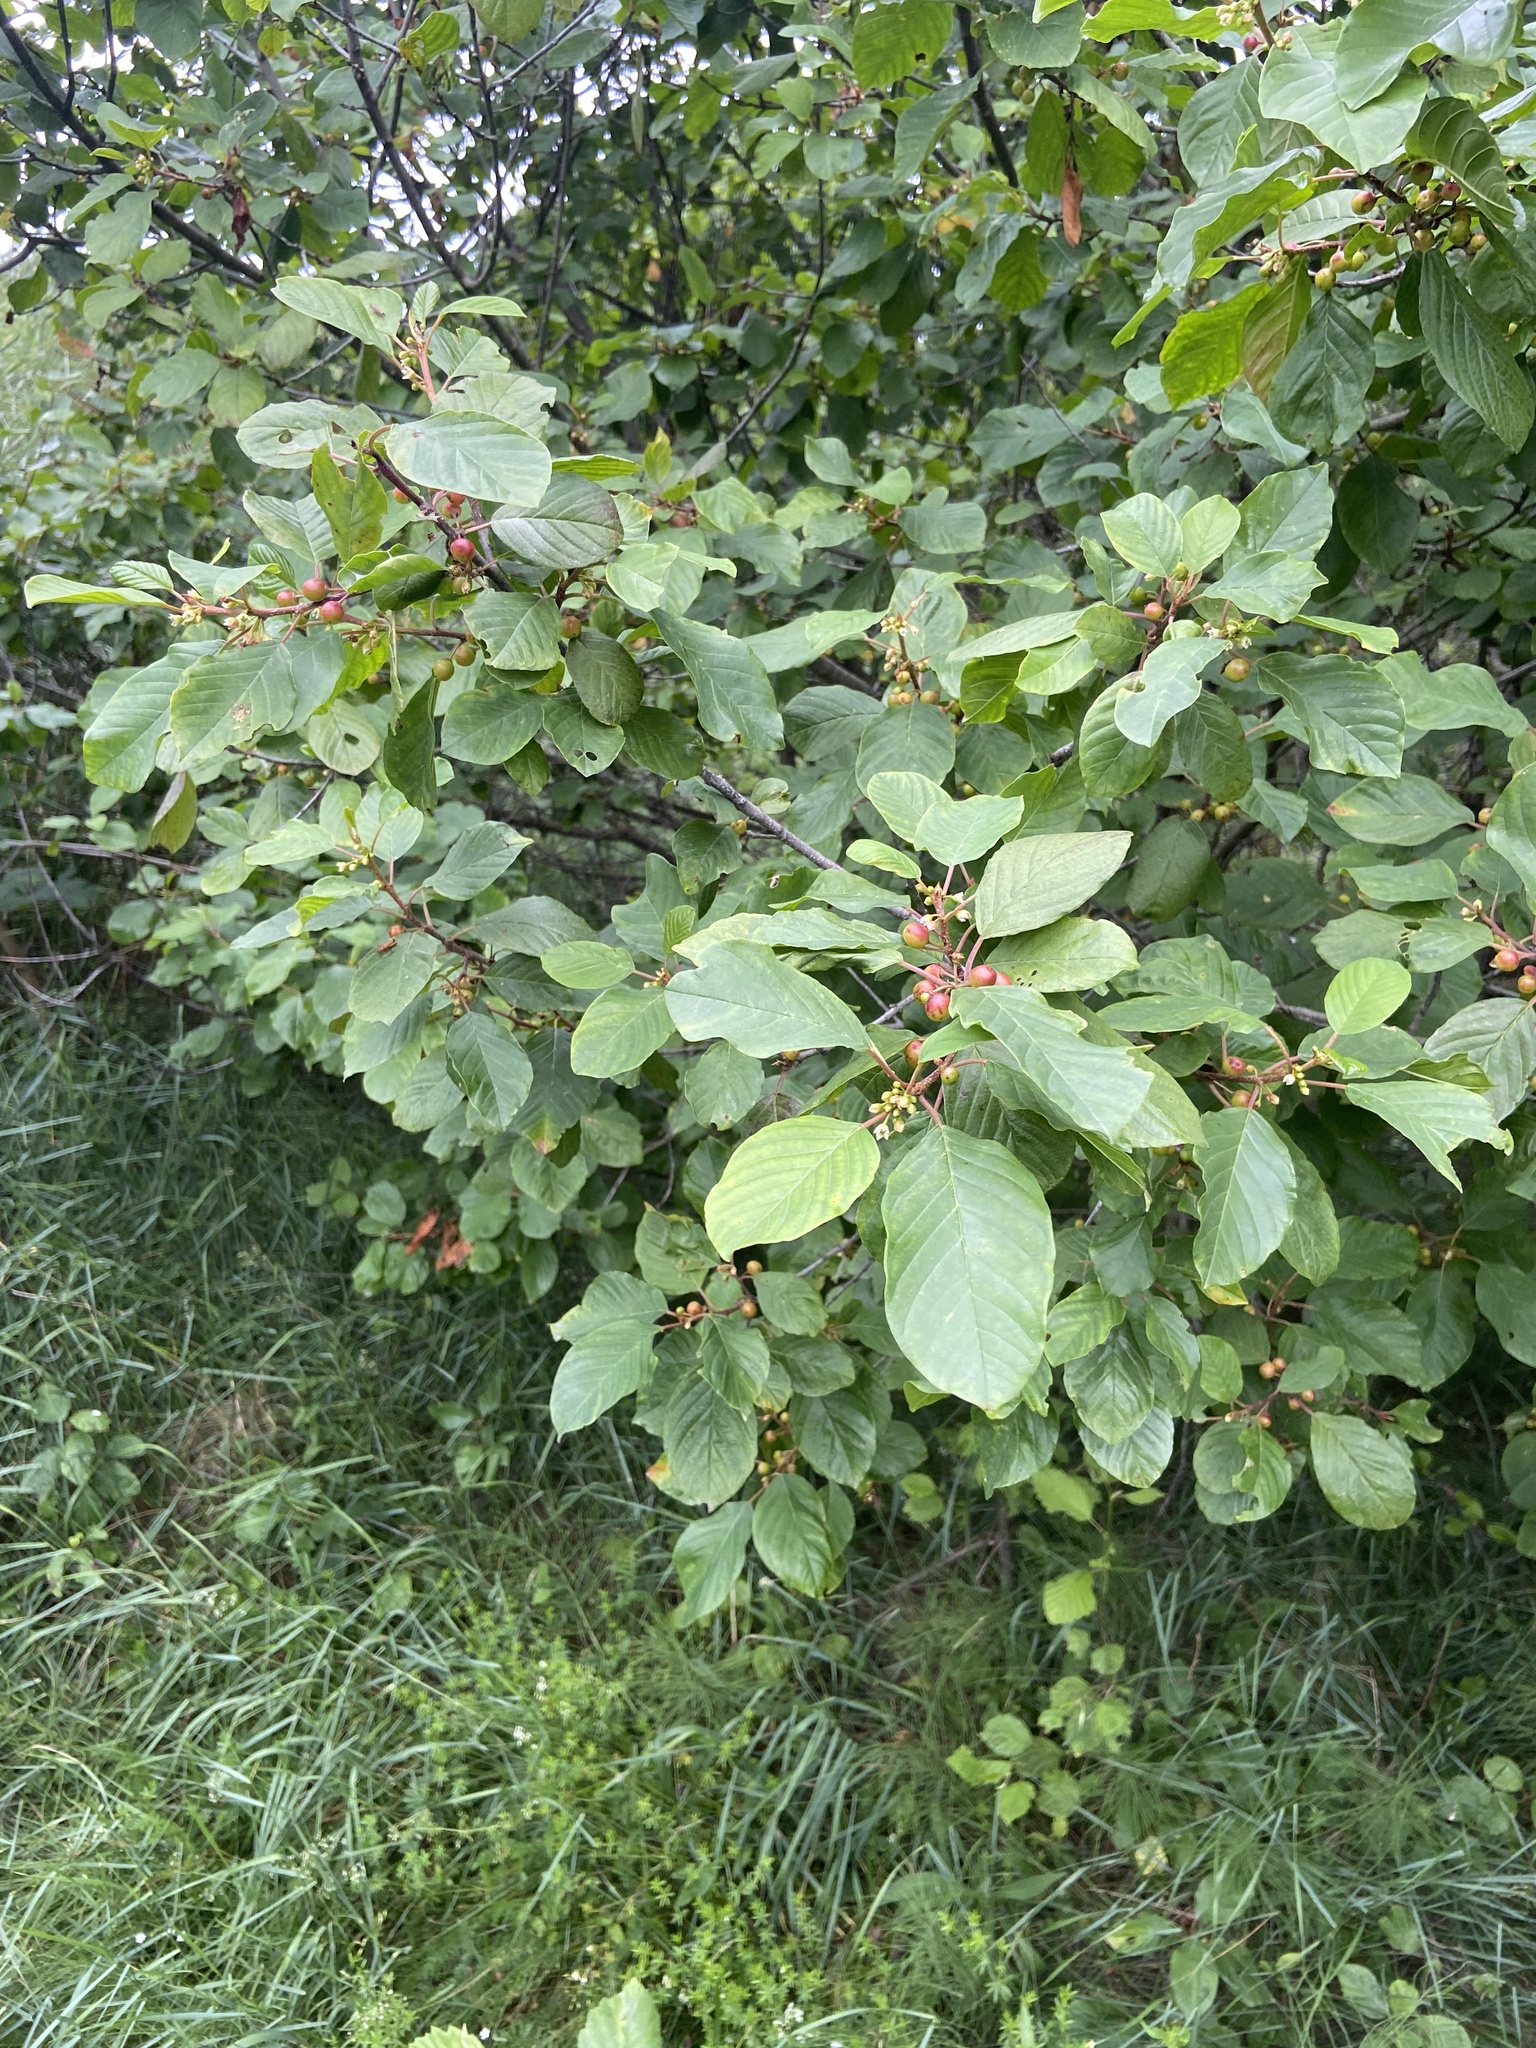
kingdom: Plantae
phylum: Tracheophyta
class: Magnoliopsida
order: Rosales
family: Rhamnaceae
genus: Frangula
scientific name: Frangula alnus
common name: Alder buckthorn
